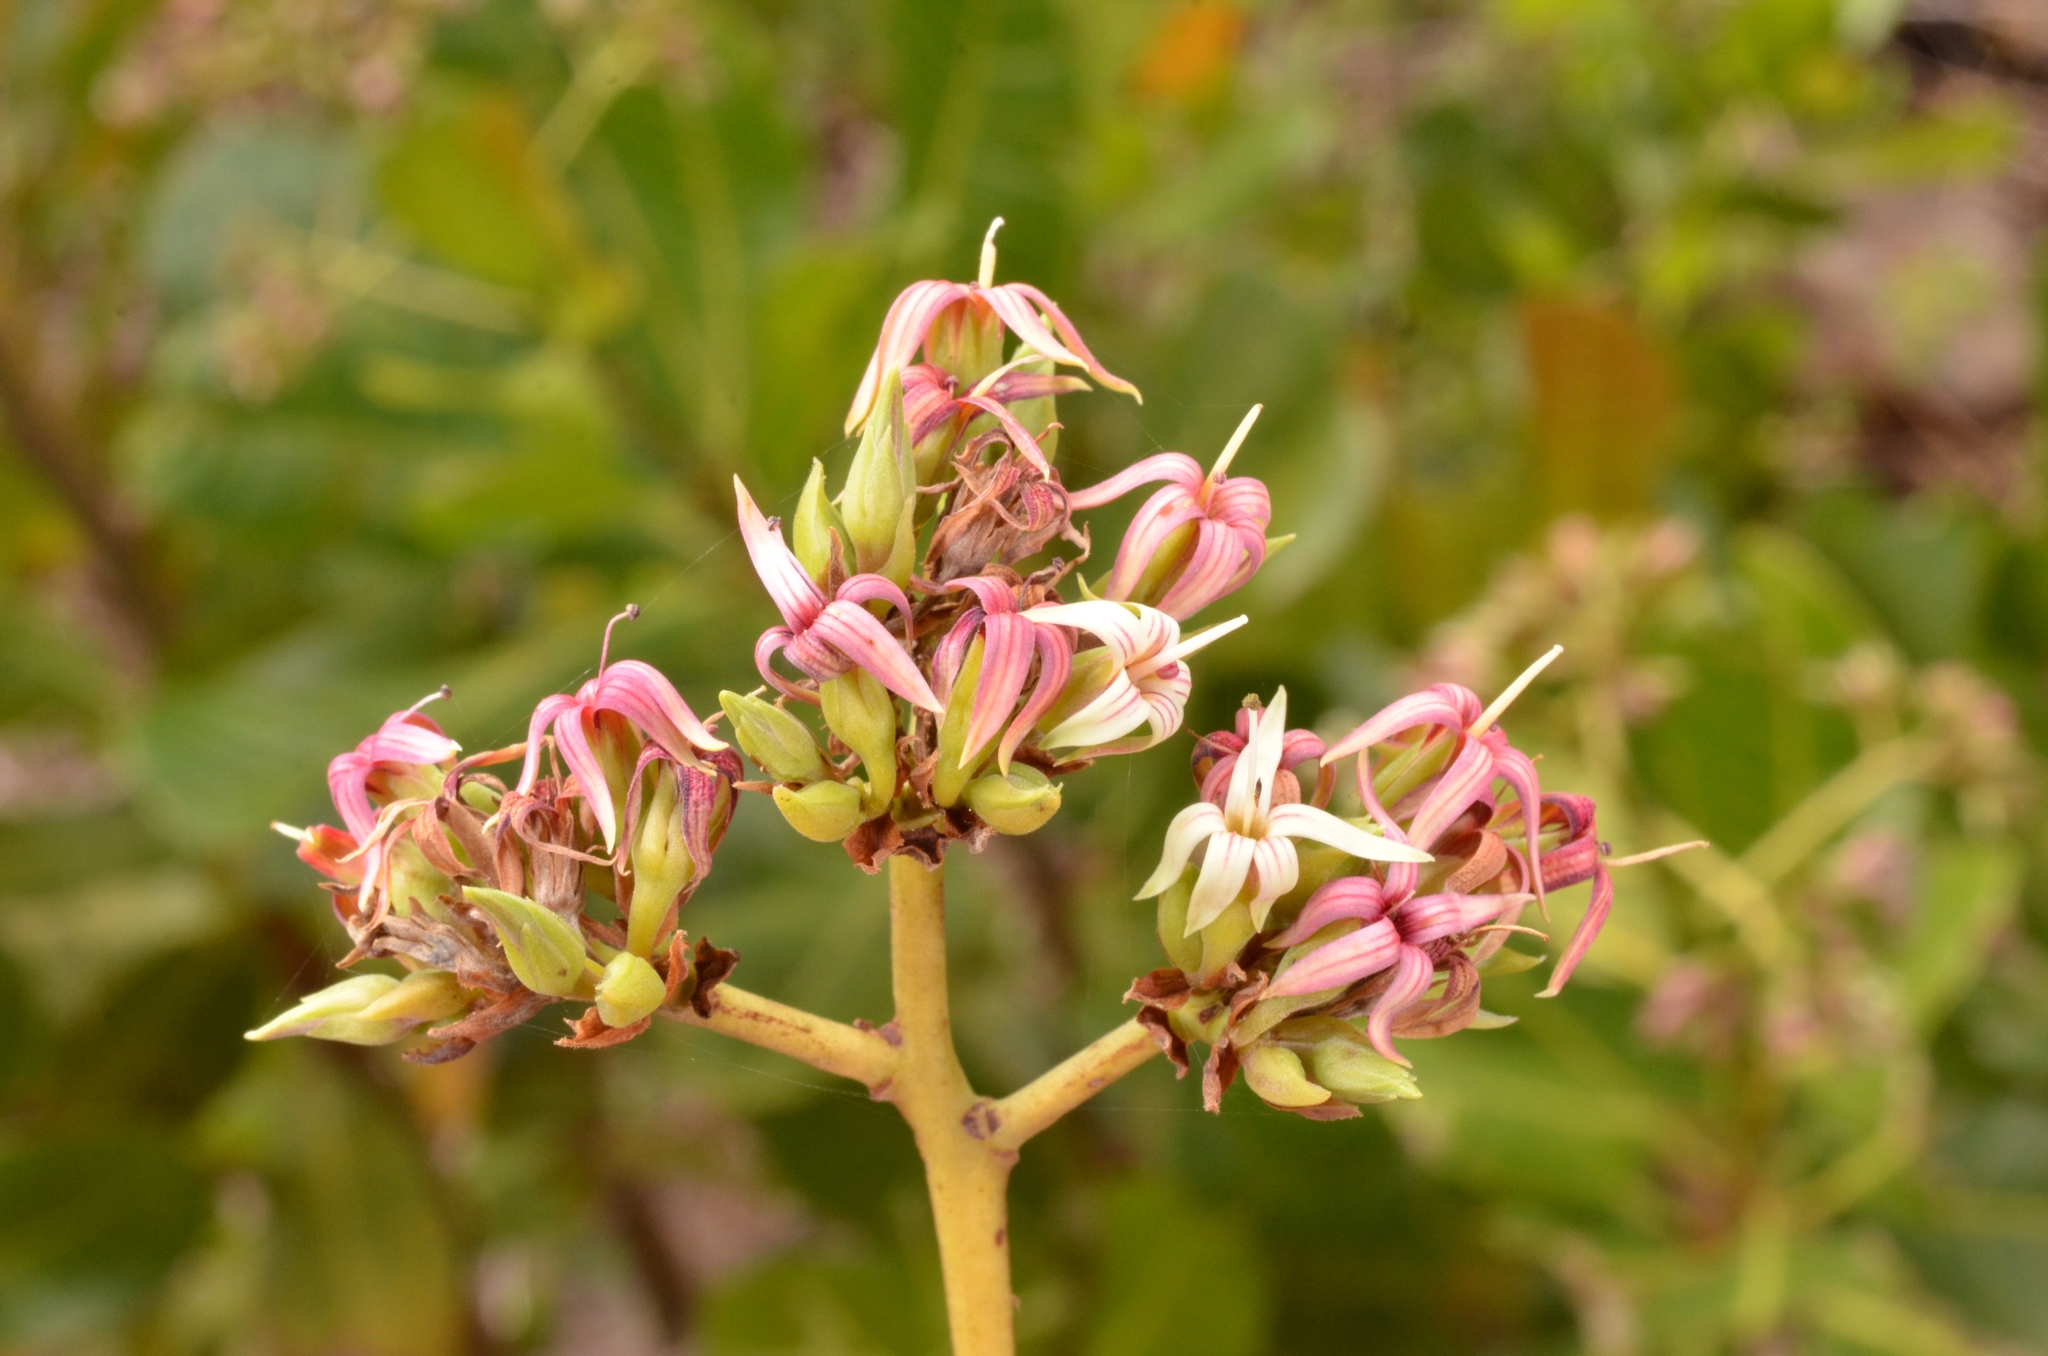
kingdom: Plantae
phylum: Tracheophyta
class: Magnoliopsida
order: Sapindales
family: Anacardiaceae
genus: Anacardium
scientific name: Anacardium occidentale
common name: Cashew
